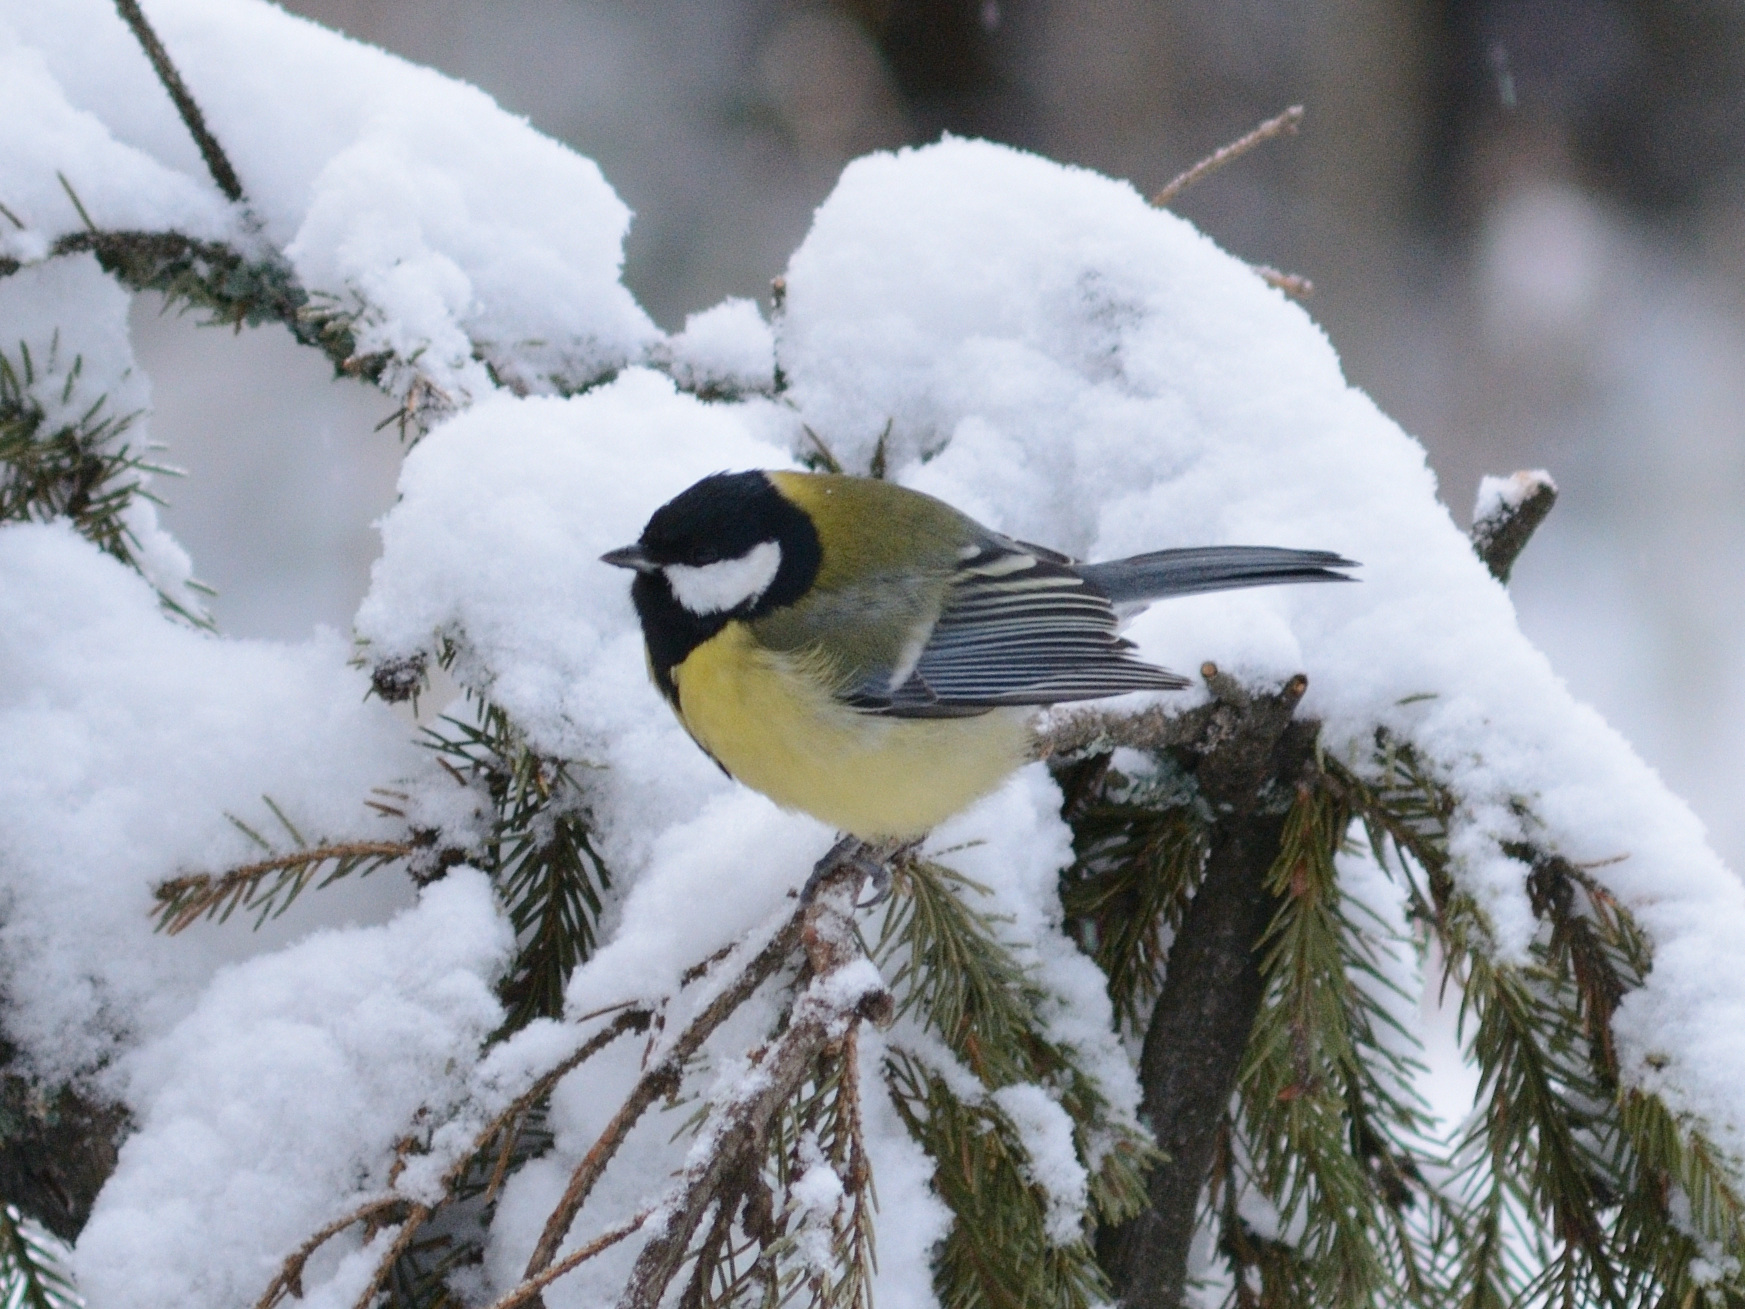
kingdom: Animalia
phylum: Chordata
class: Aves
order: Passeriformes
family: Paridae
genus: Parus
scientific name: Parus major
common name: Great tit
